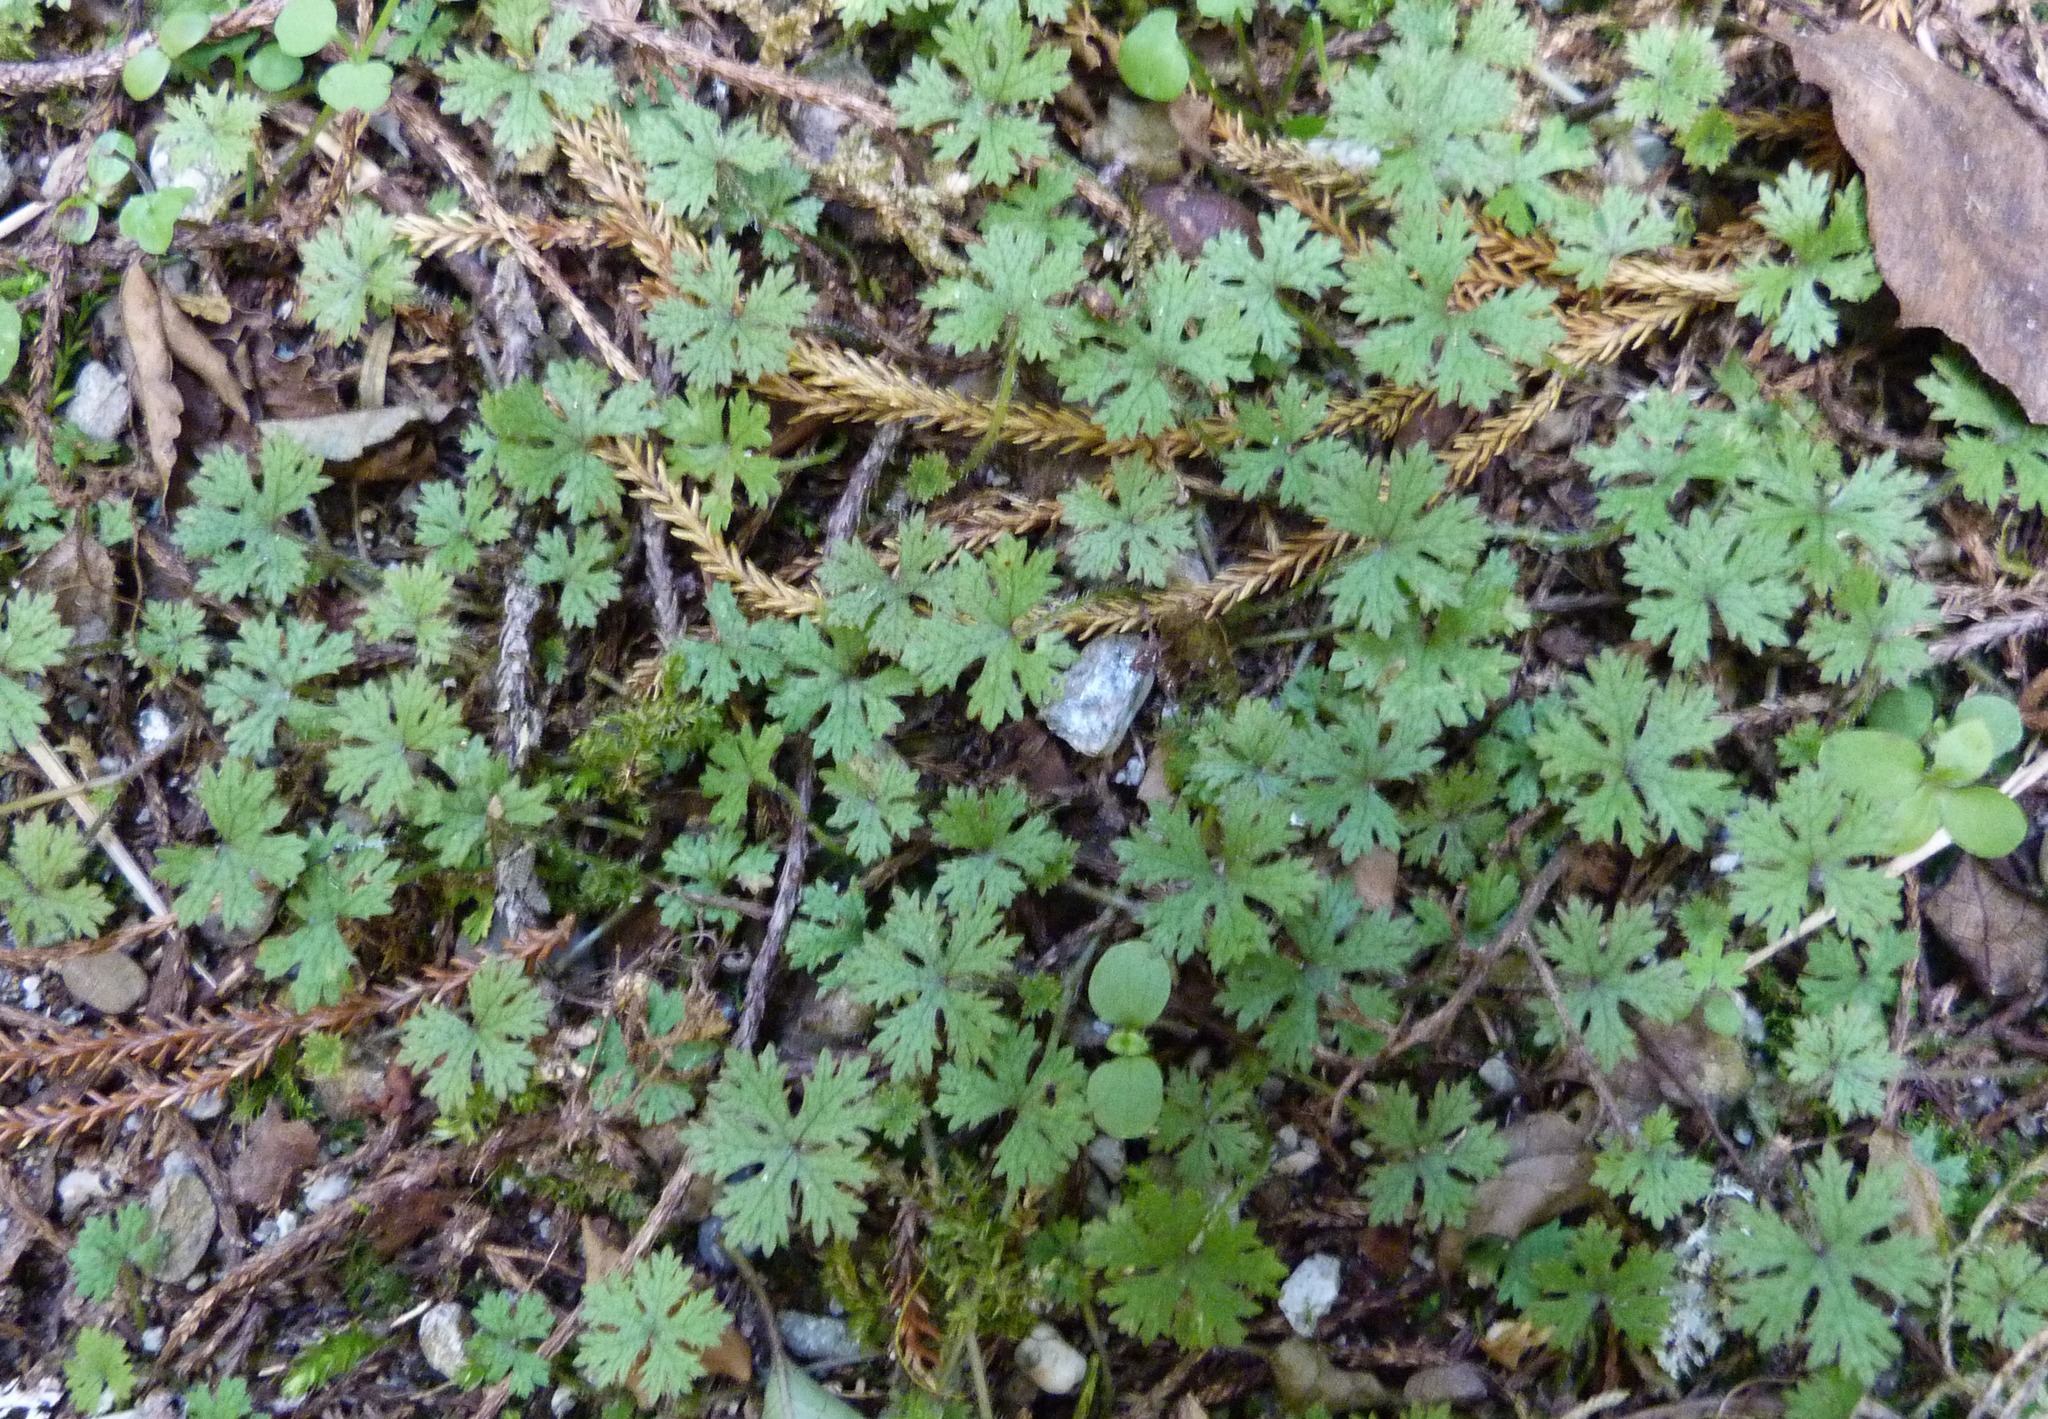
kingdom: Plantae
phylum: Tracheophyta
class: Magnoliopsida
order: Apiales
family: Araliaceae
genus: Hydrocotyle
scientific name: Hydrocotyle dissecta
